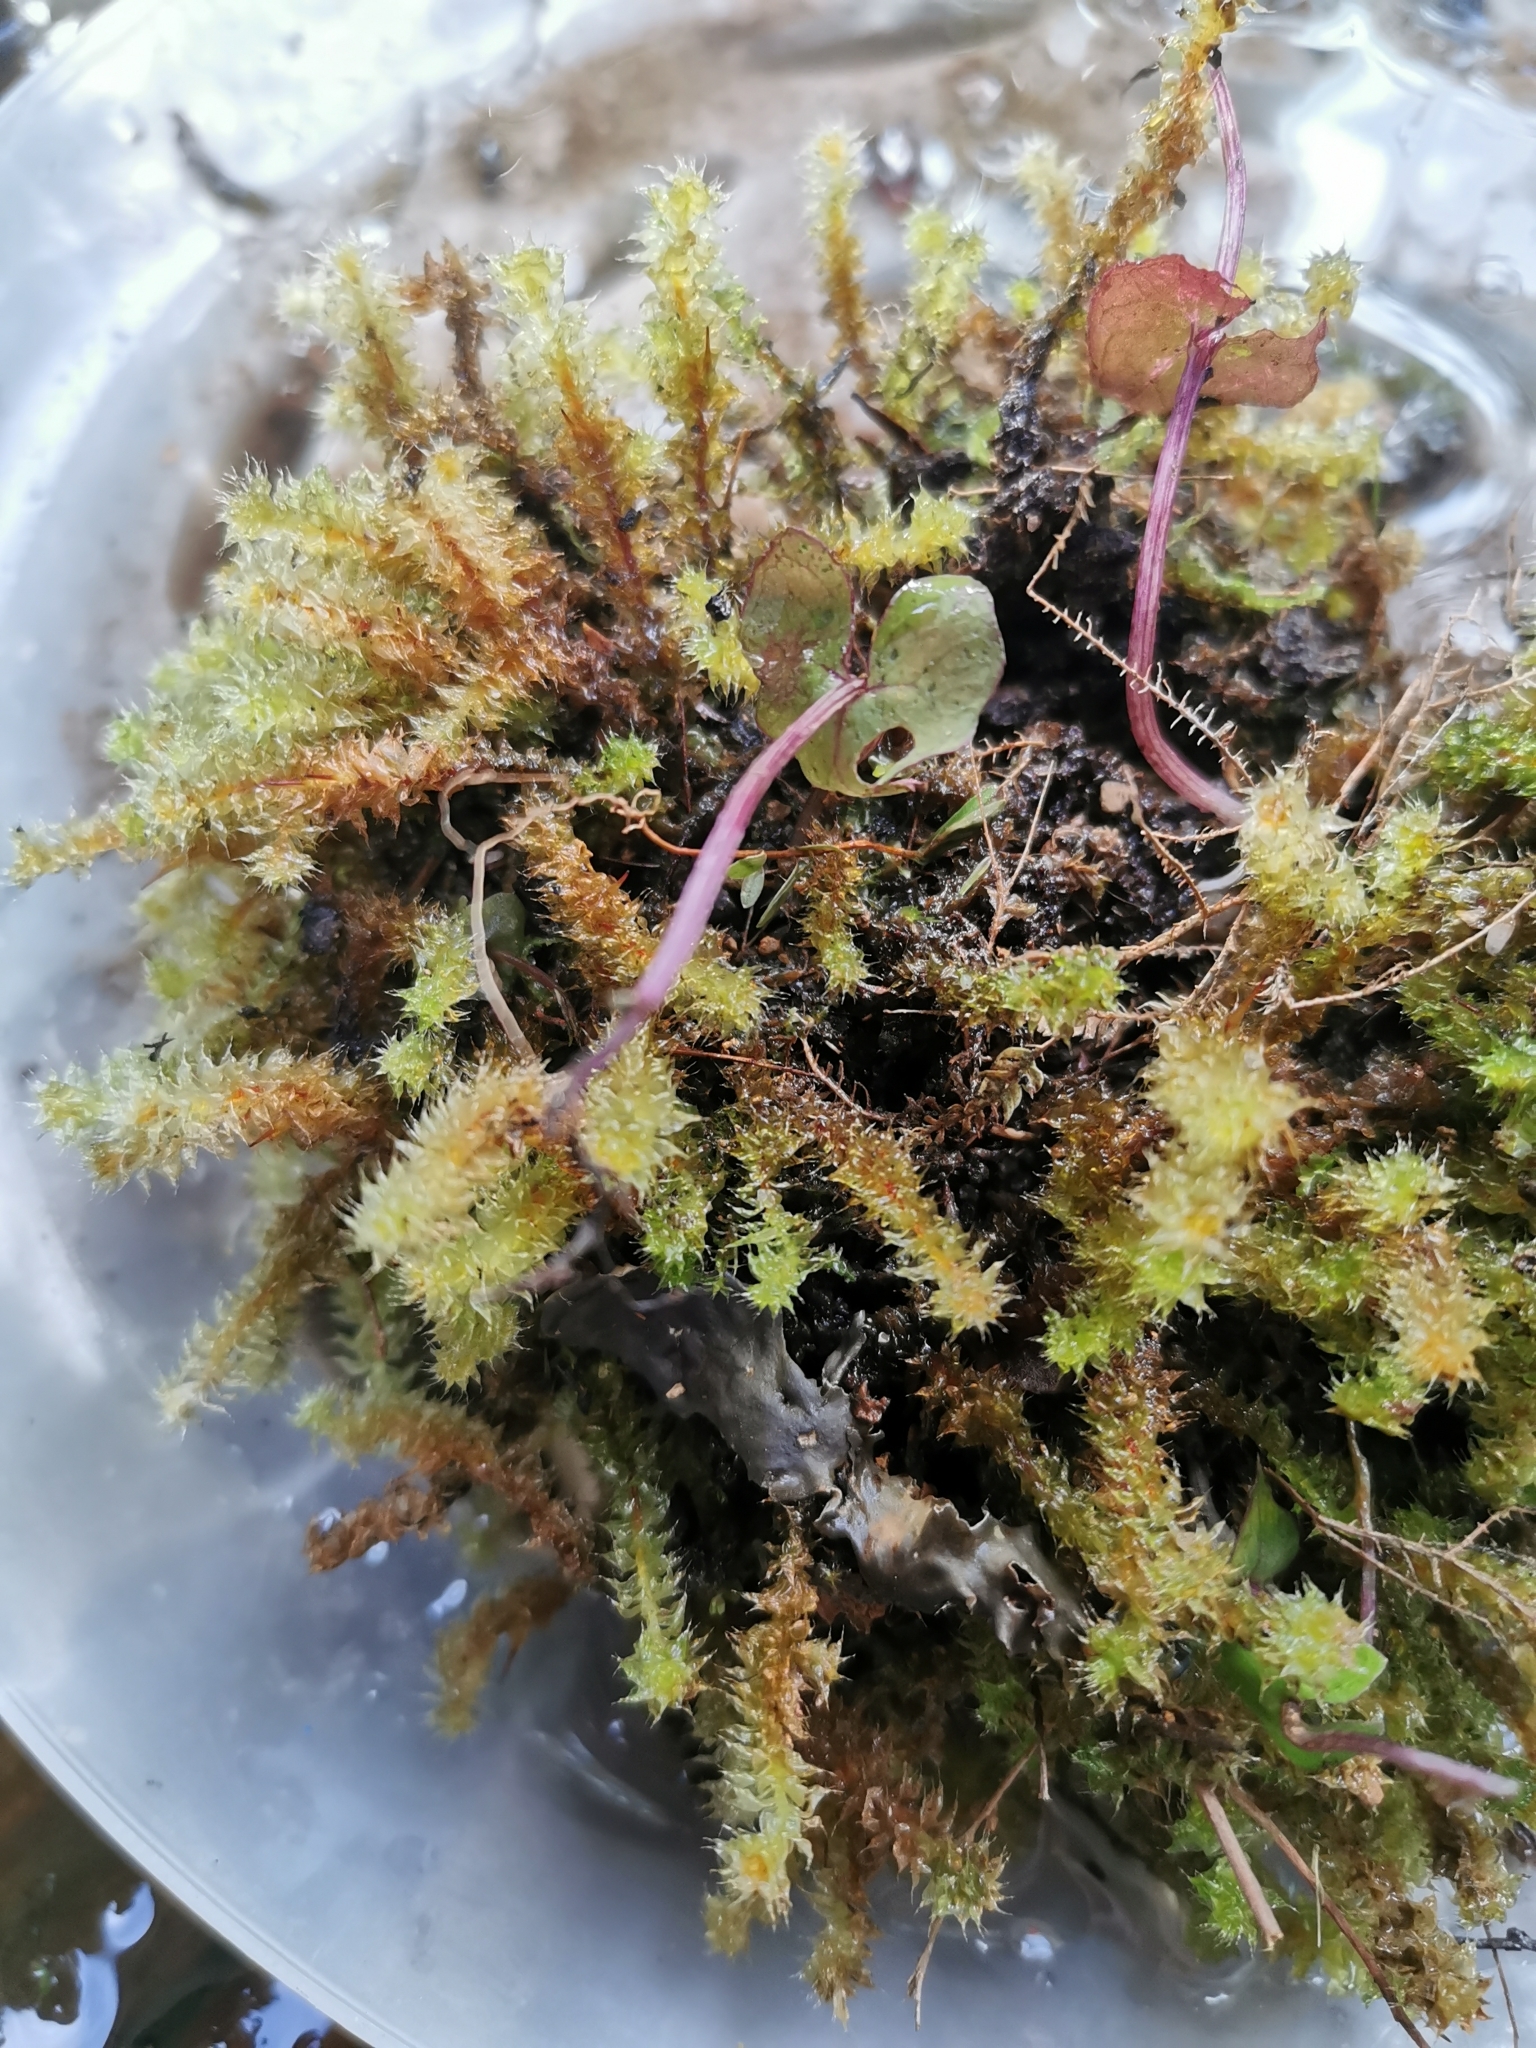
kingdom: Plantae
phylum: Tracheophyta
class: Liliopsida
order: Asparagales
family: Orchidaceae
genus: Acianthus
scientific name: Acianthus sinclairii
